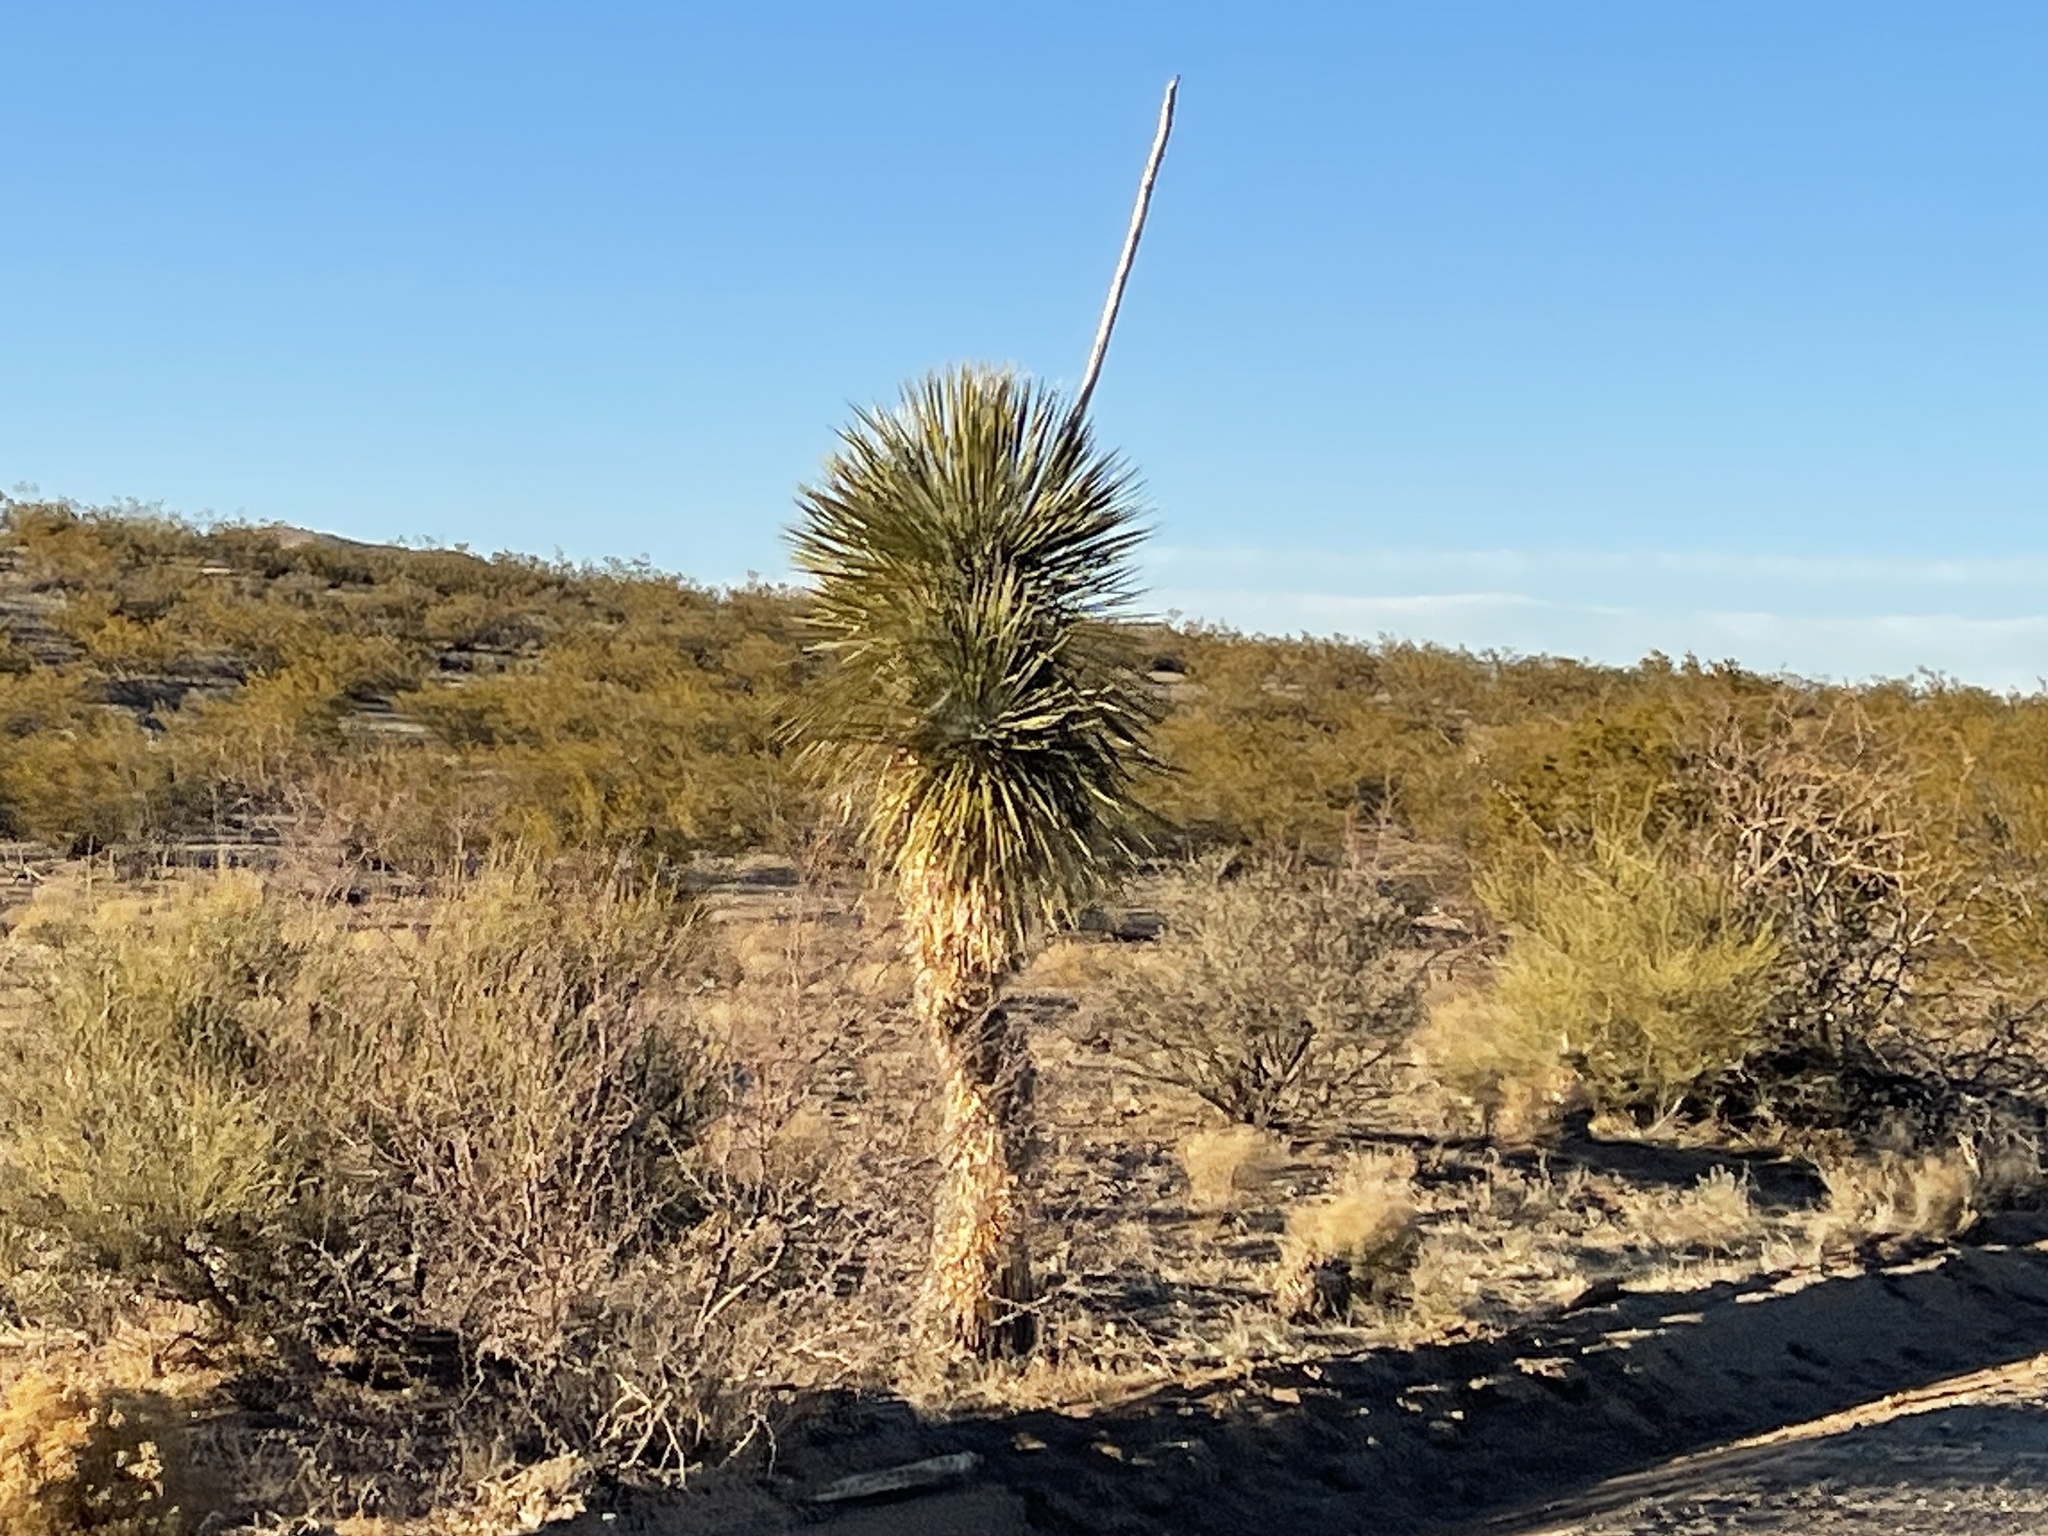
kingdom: Plantae
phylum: Tracheophyta
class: Liliopsida
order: Asparagales
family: Asparagaceae
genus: Yucca
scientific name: Yucca elata
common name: Palmella
